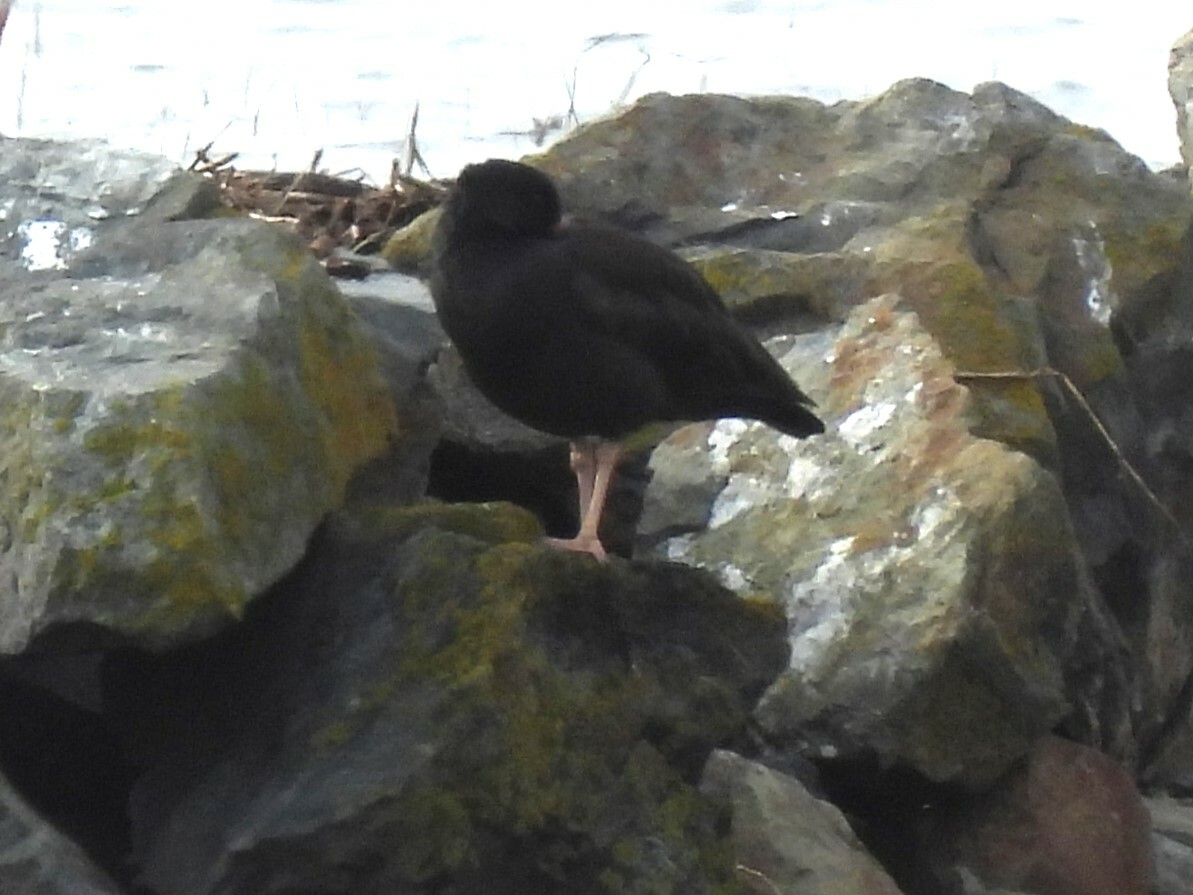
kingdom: Animalia
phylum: Chordata
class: Aves
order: Charadriiformes
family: Haematopodidae
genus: Haematopus
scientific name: Haematopus bachmani
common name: Black oystercatcher
